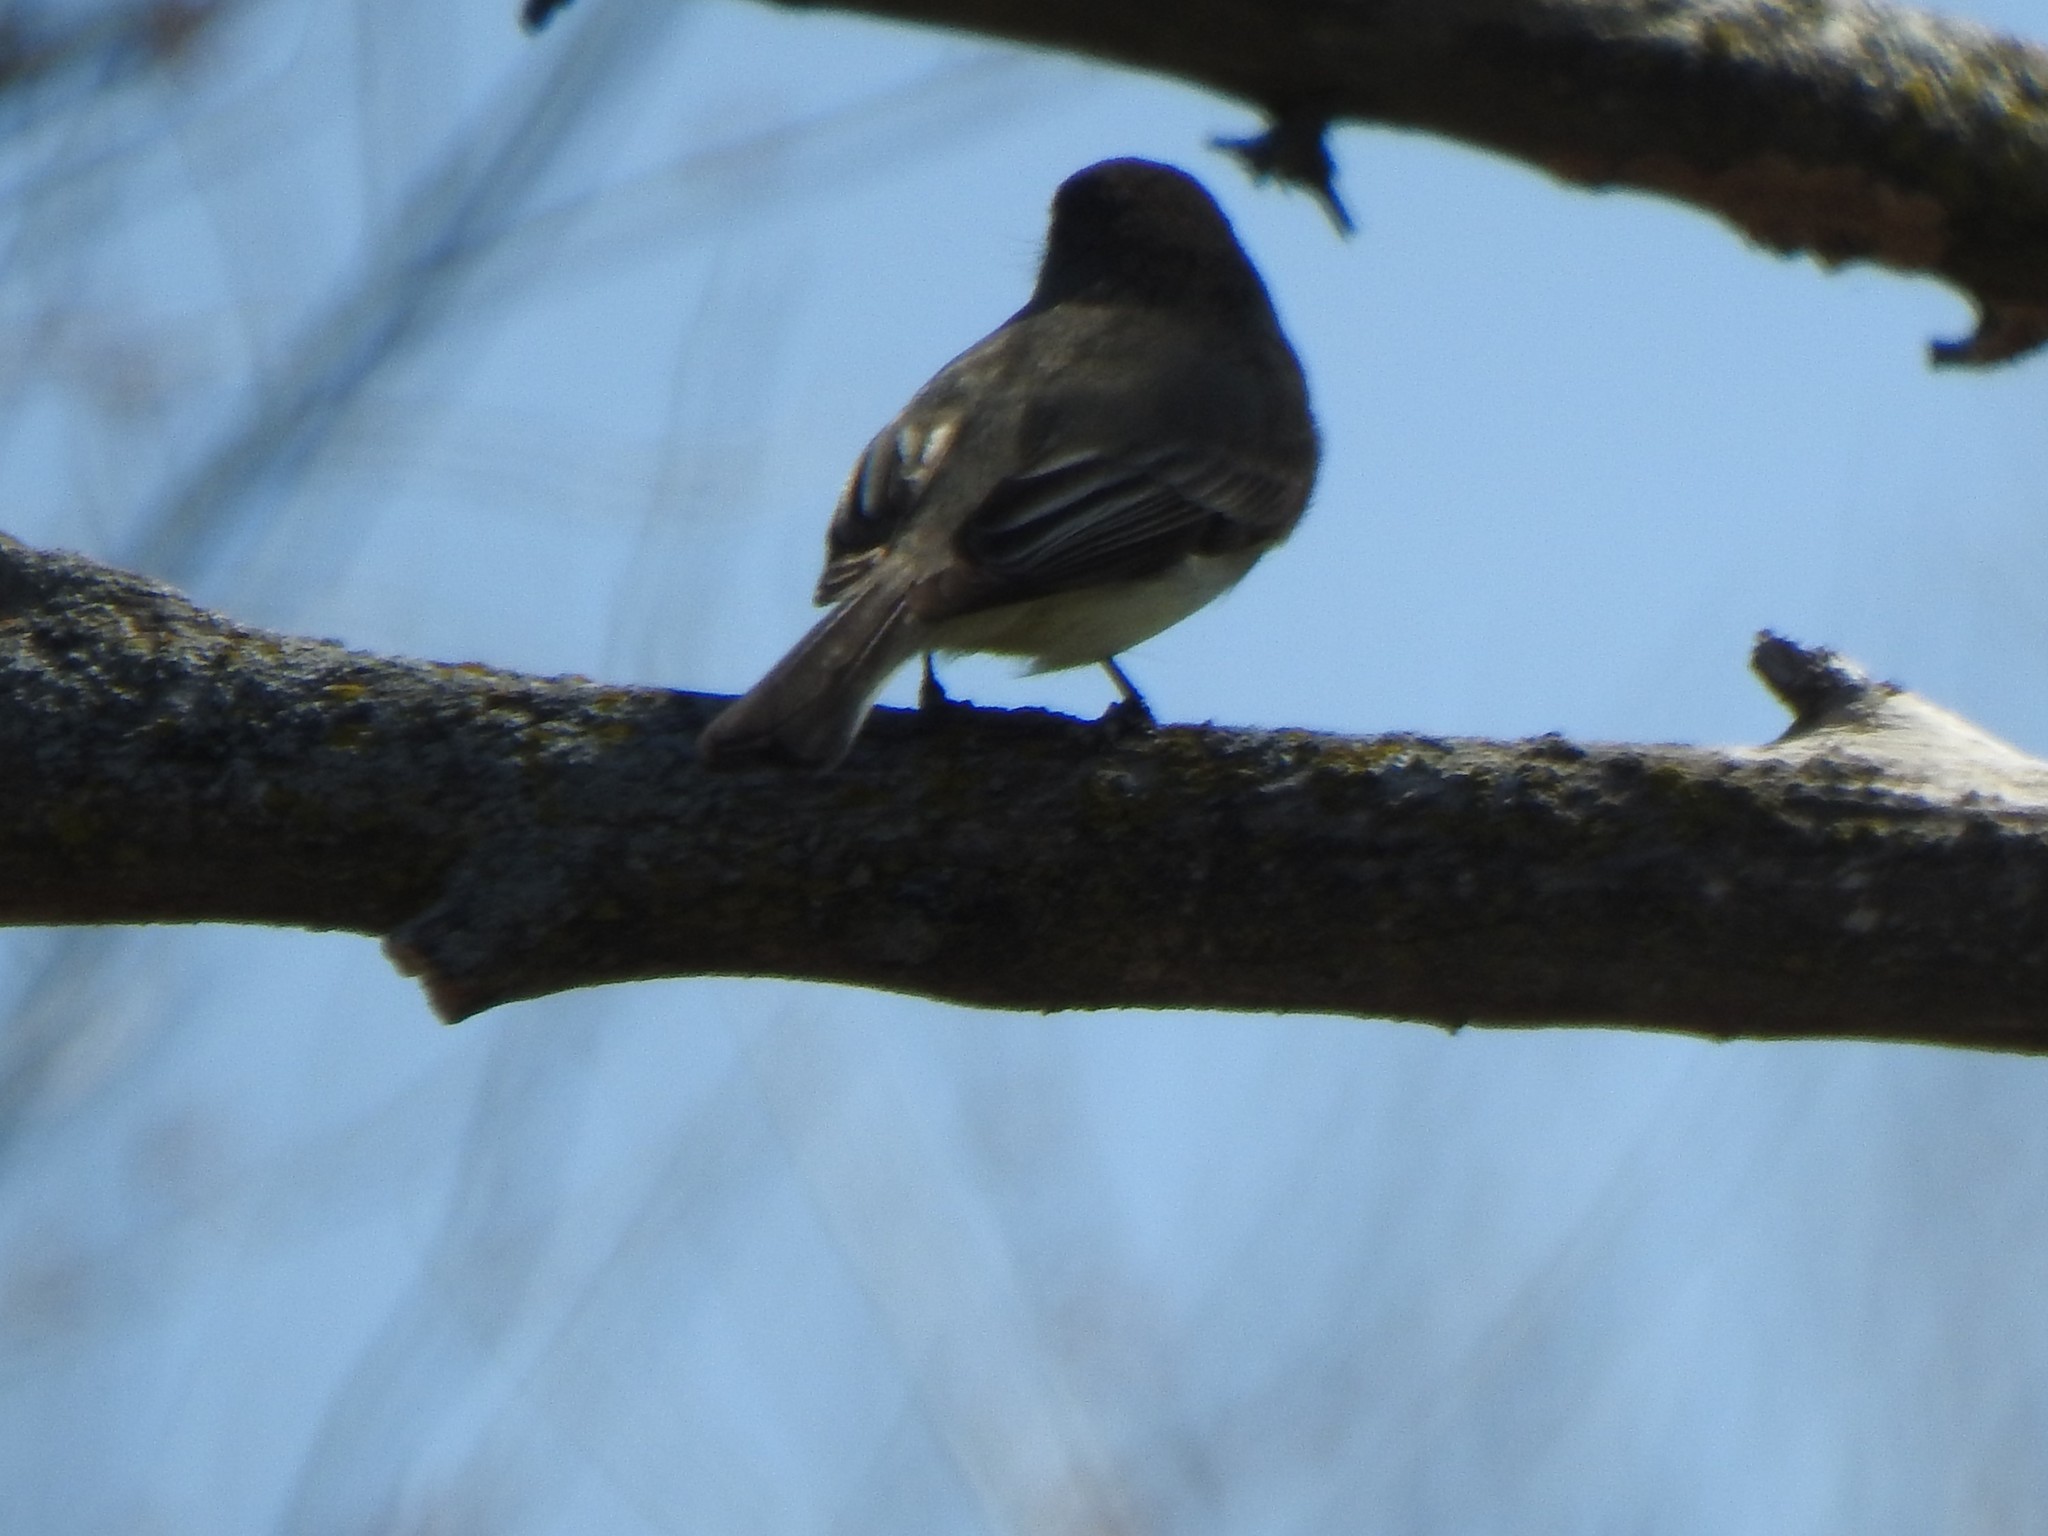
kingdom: Animalia
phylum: Chordata
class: Aves
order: Passeriformes
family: Tyrannidae
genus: Sayornis
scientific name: Sayornis phoebe
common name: Eastern phoebe
